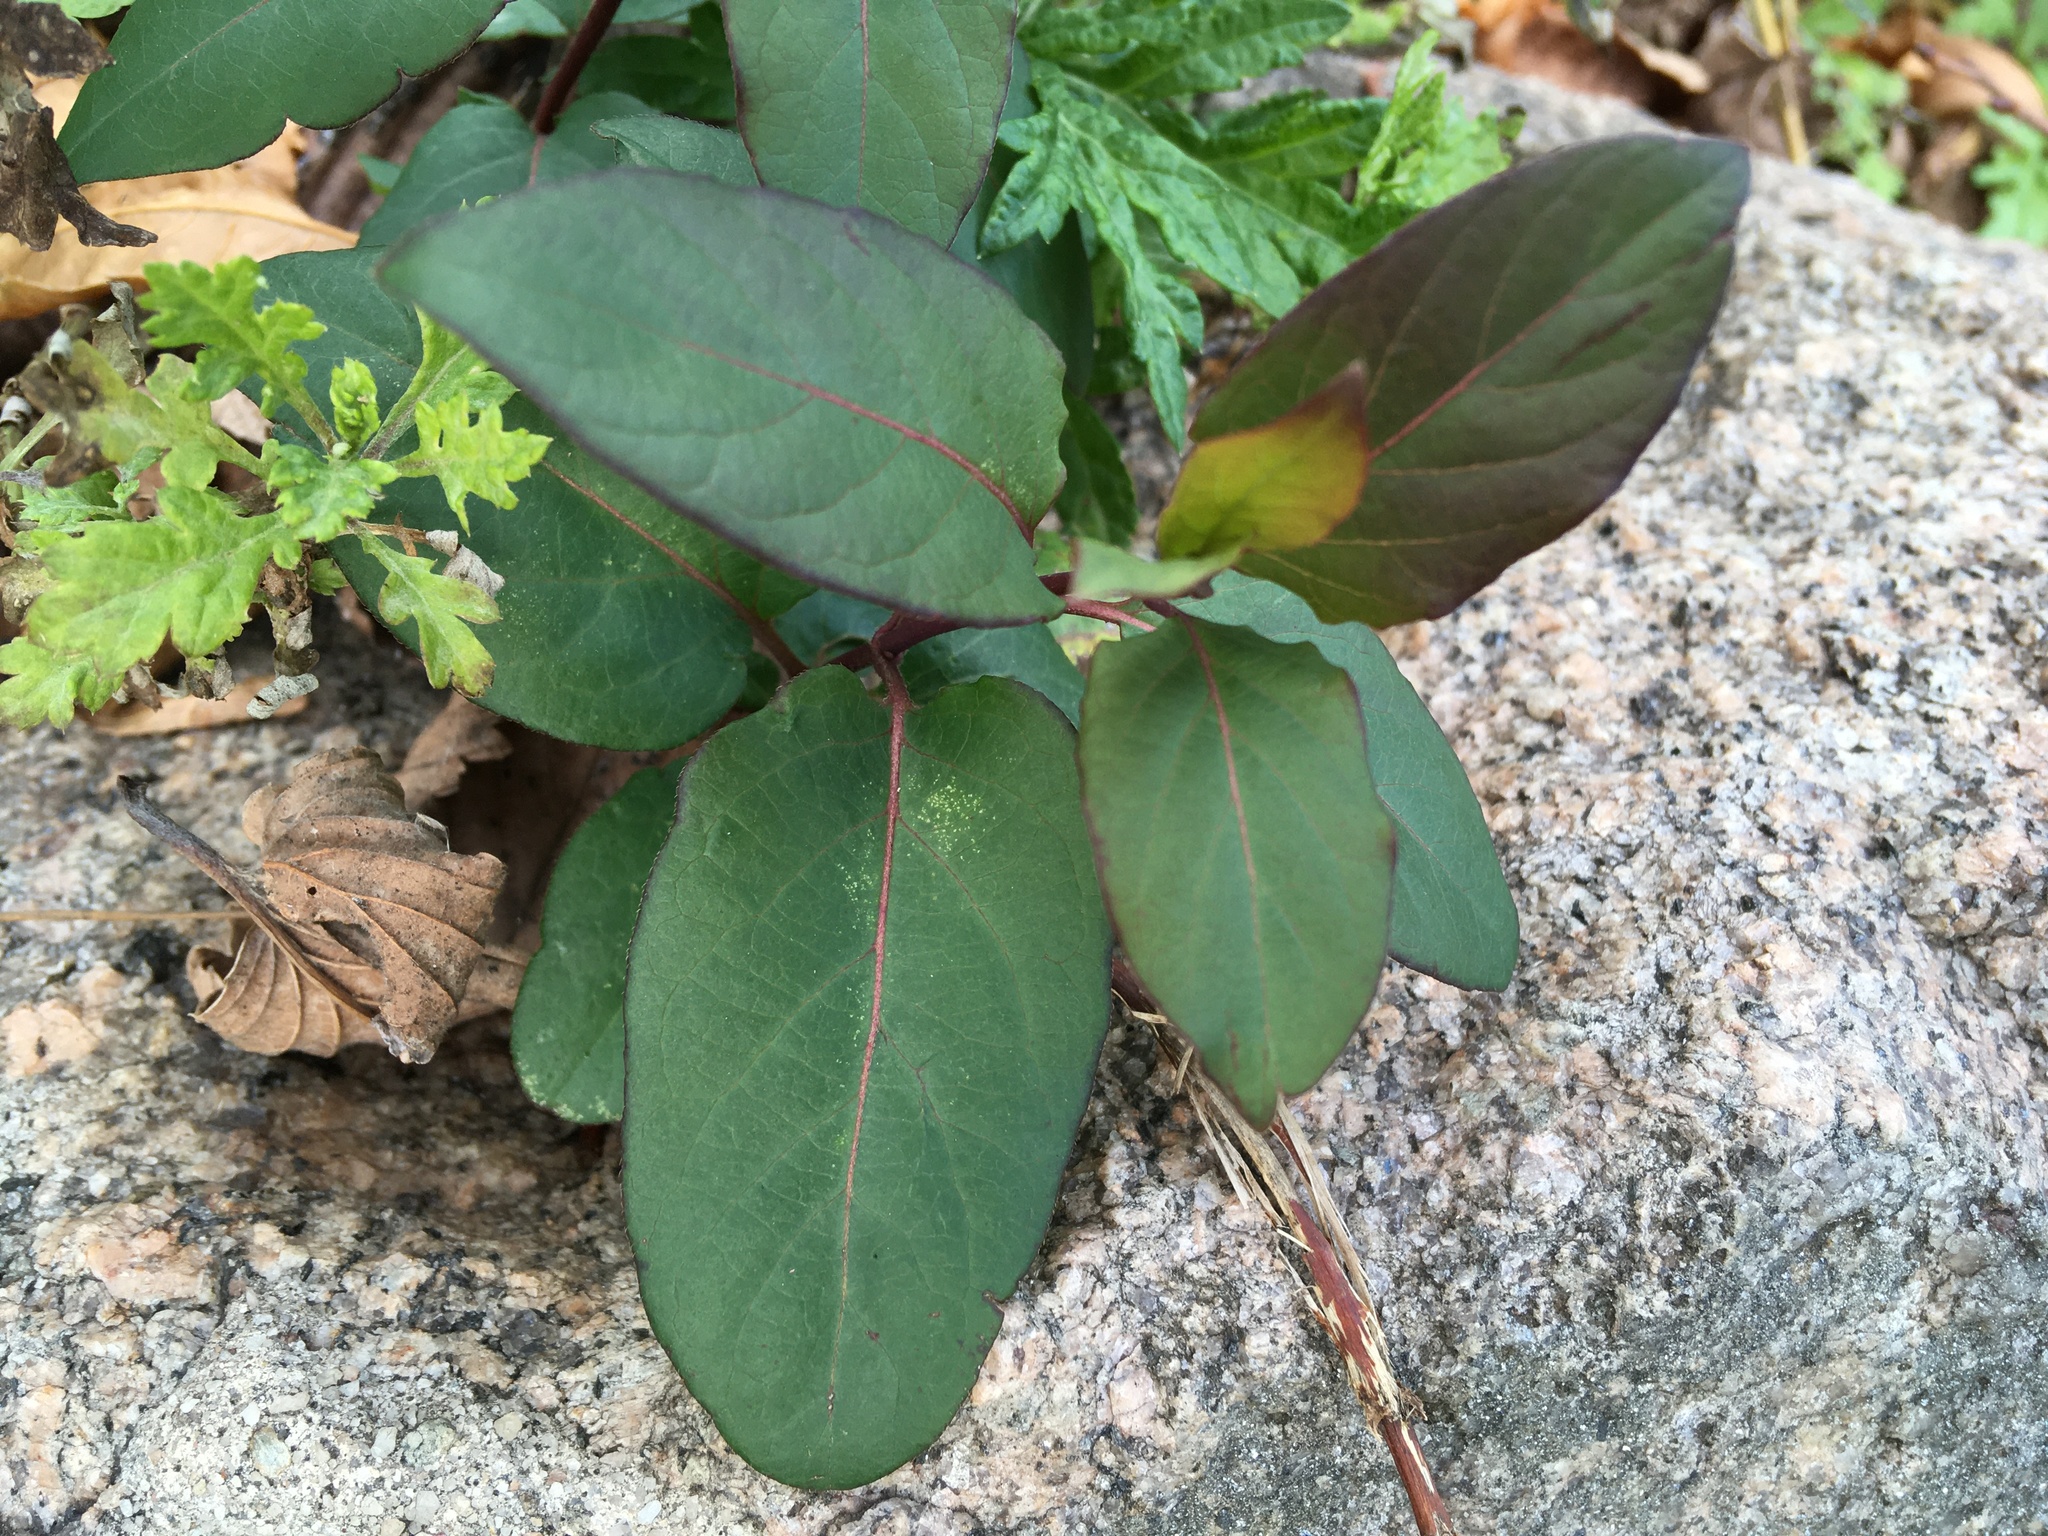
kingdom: Plantae
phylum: Tracheophyta
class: Magnoliopsida
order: Dipsacales
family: Caprifoliaceae
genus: Lonicera
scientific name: Lonicera japonica
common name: Japanese honeysuckle
